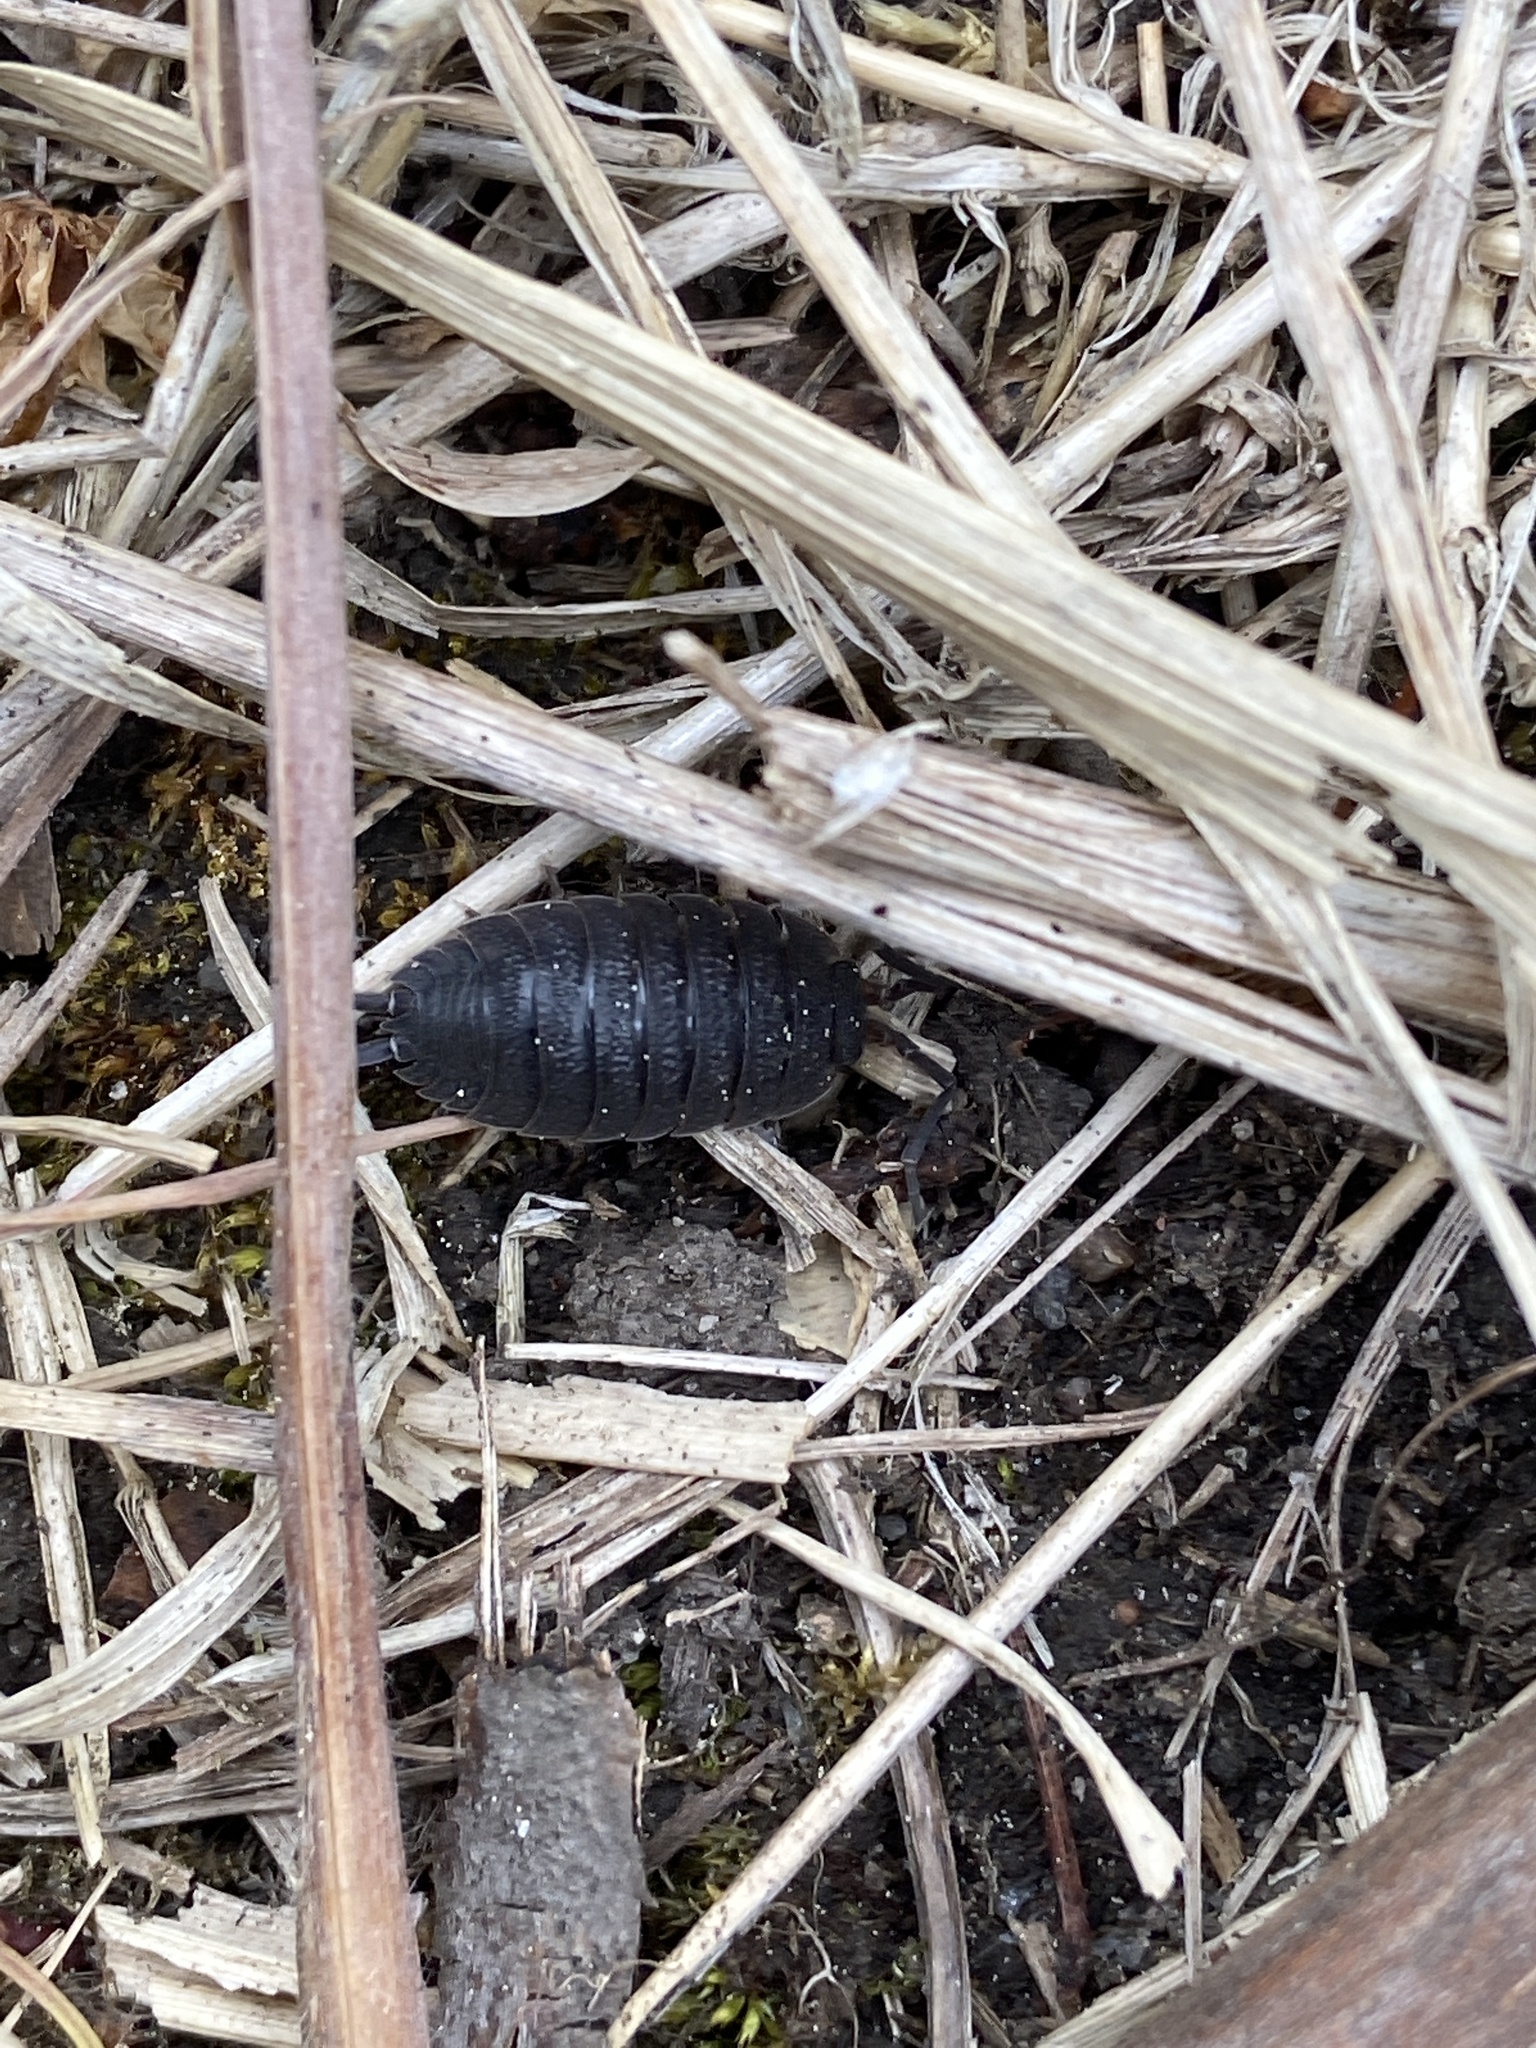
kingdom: Animalia
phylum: Arthropoda
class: Malacostraca
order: Isopoda
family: Porcellionidae
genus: Porcellio
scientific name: Porcellio scaber
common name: Common rough woodlouse
